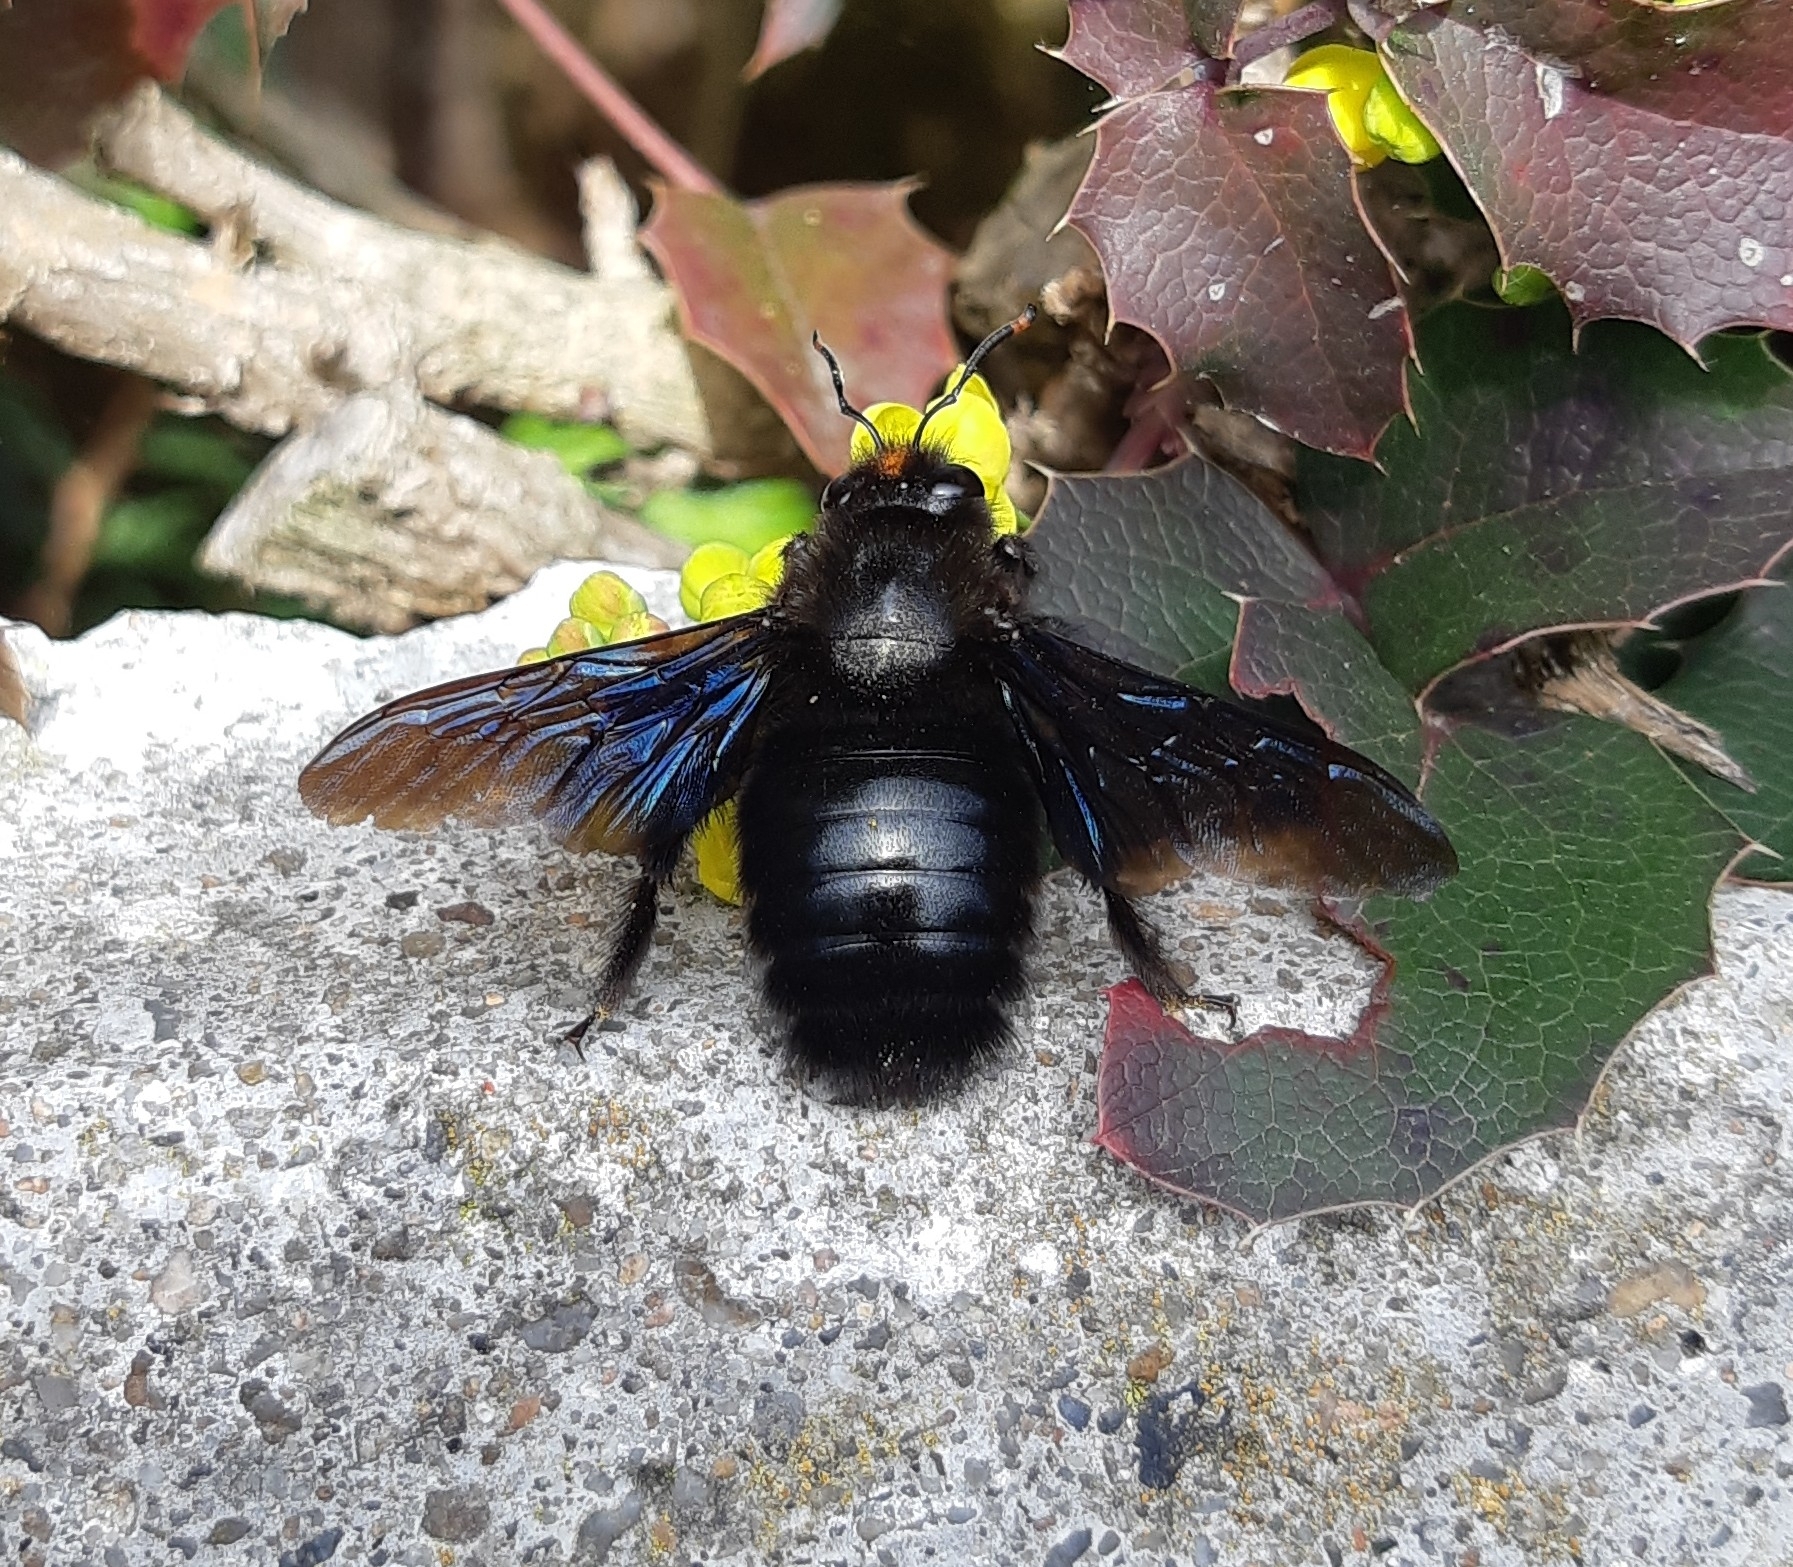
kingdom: Animalia
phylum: Arthropoda
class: Insecta
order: Hymenoptera
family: Apidae
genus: Xylocopa
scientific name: Xylocopa violacea
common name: Violet carpenter bee
